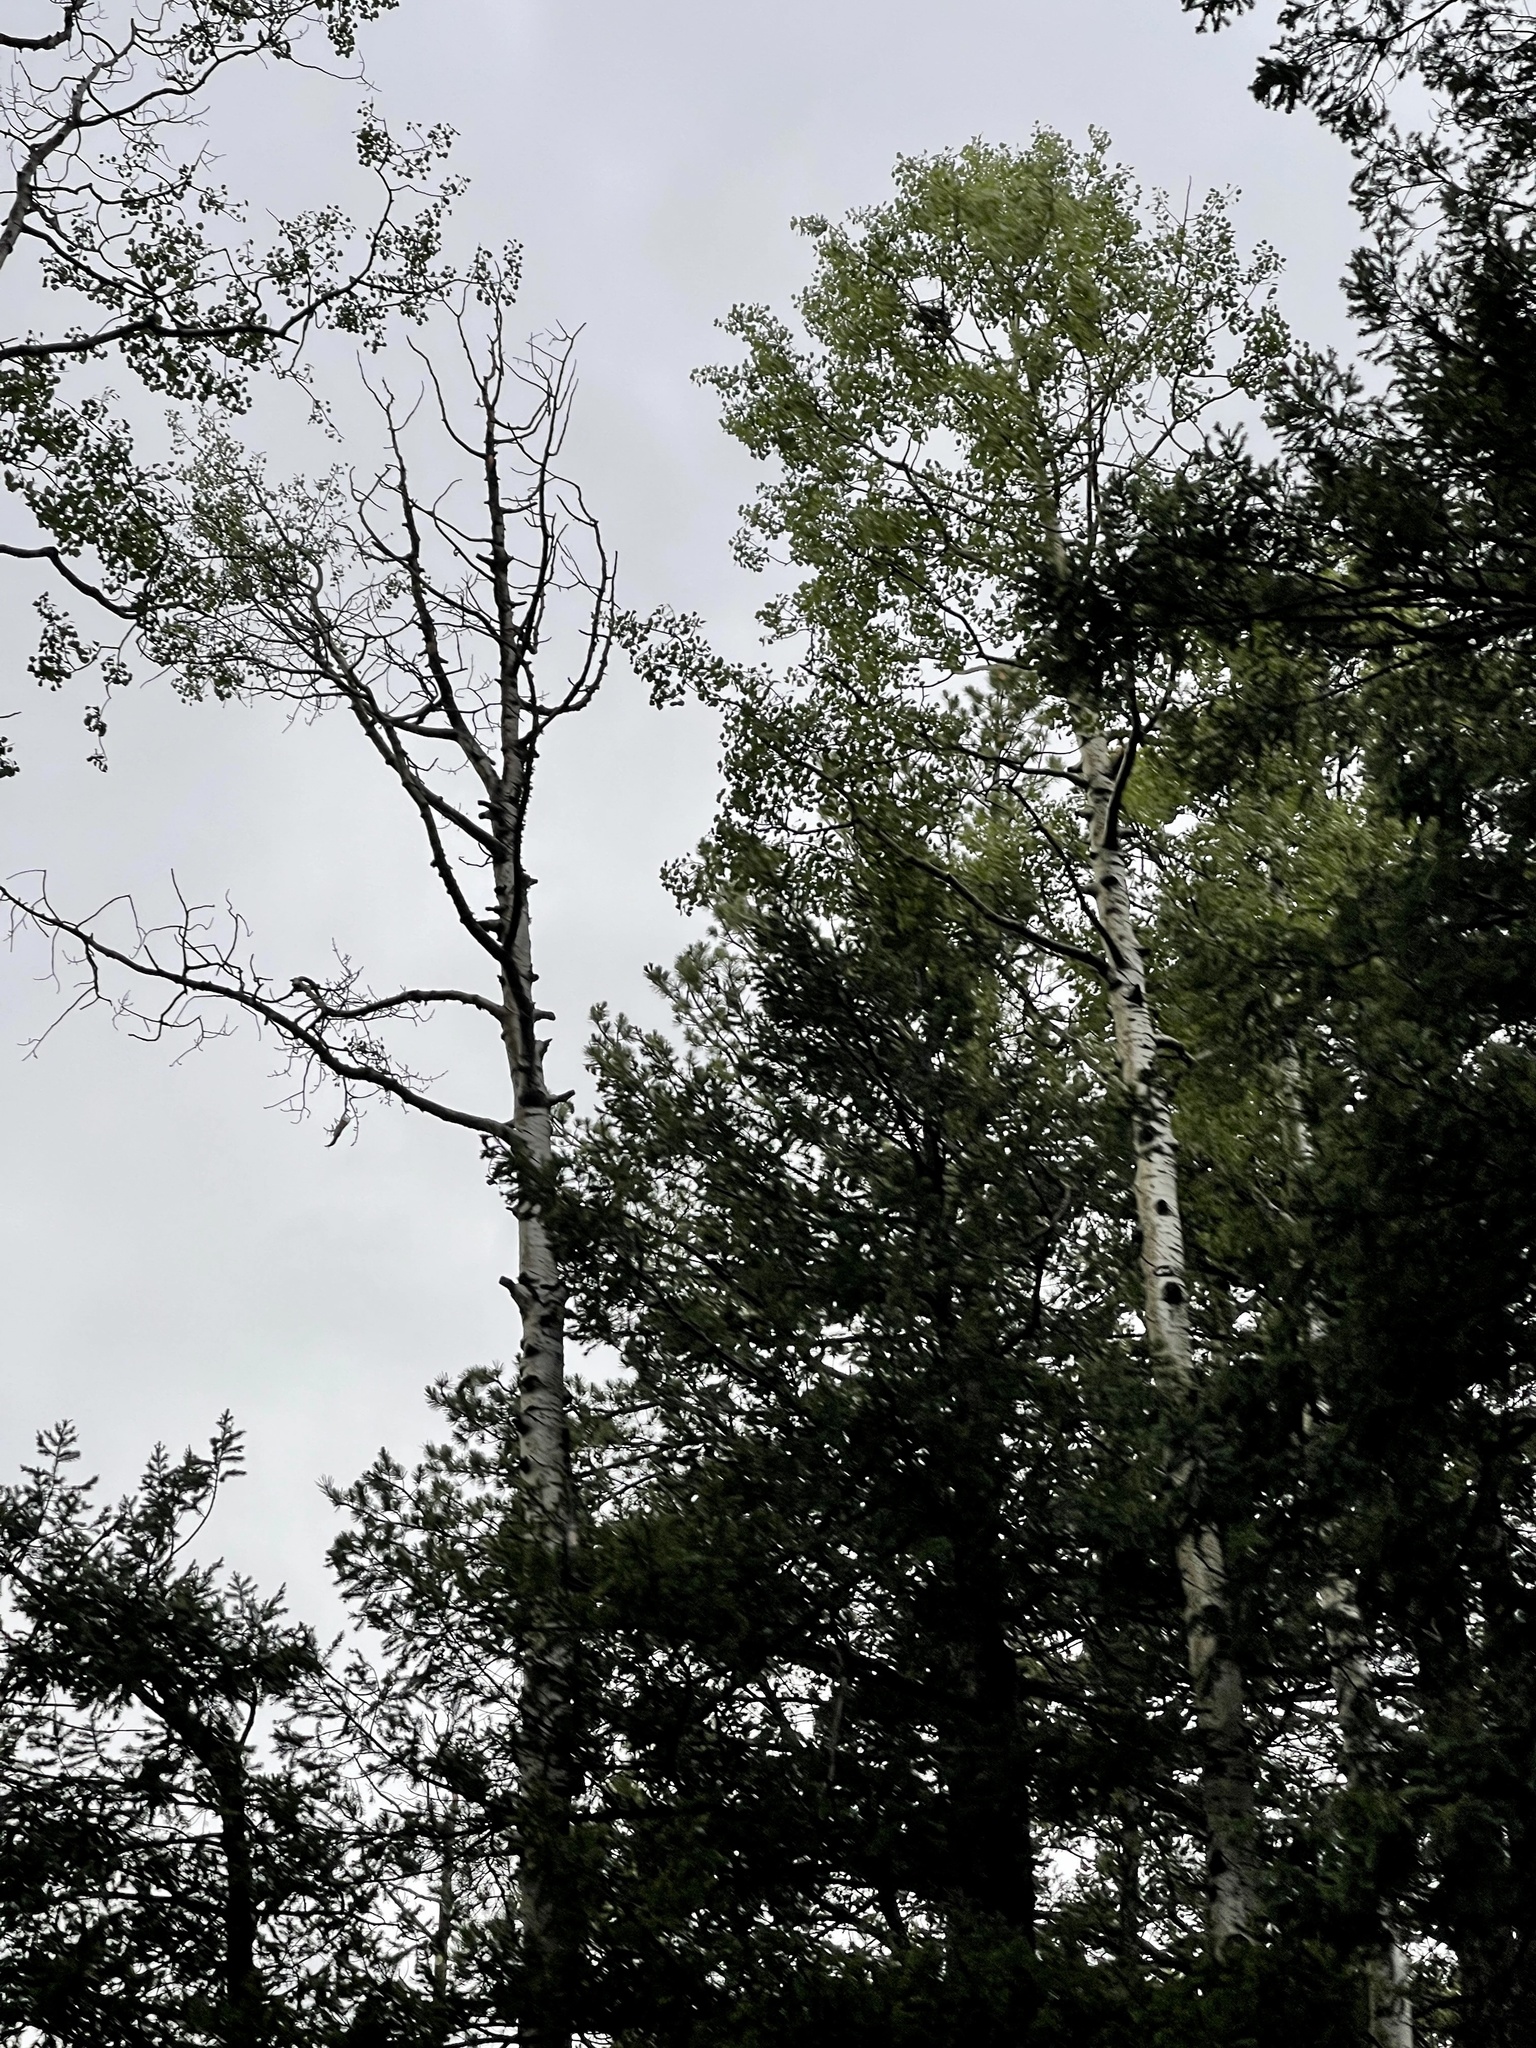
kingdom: Plantae
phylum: Tracheophyta
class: Magnoliopsida
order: Malpighiales
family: Salicaceae
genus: Populus
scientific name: Populus tremuloides
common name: Quaking aspen
